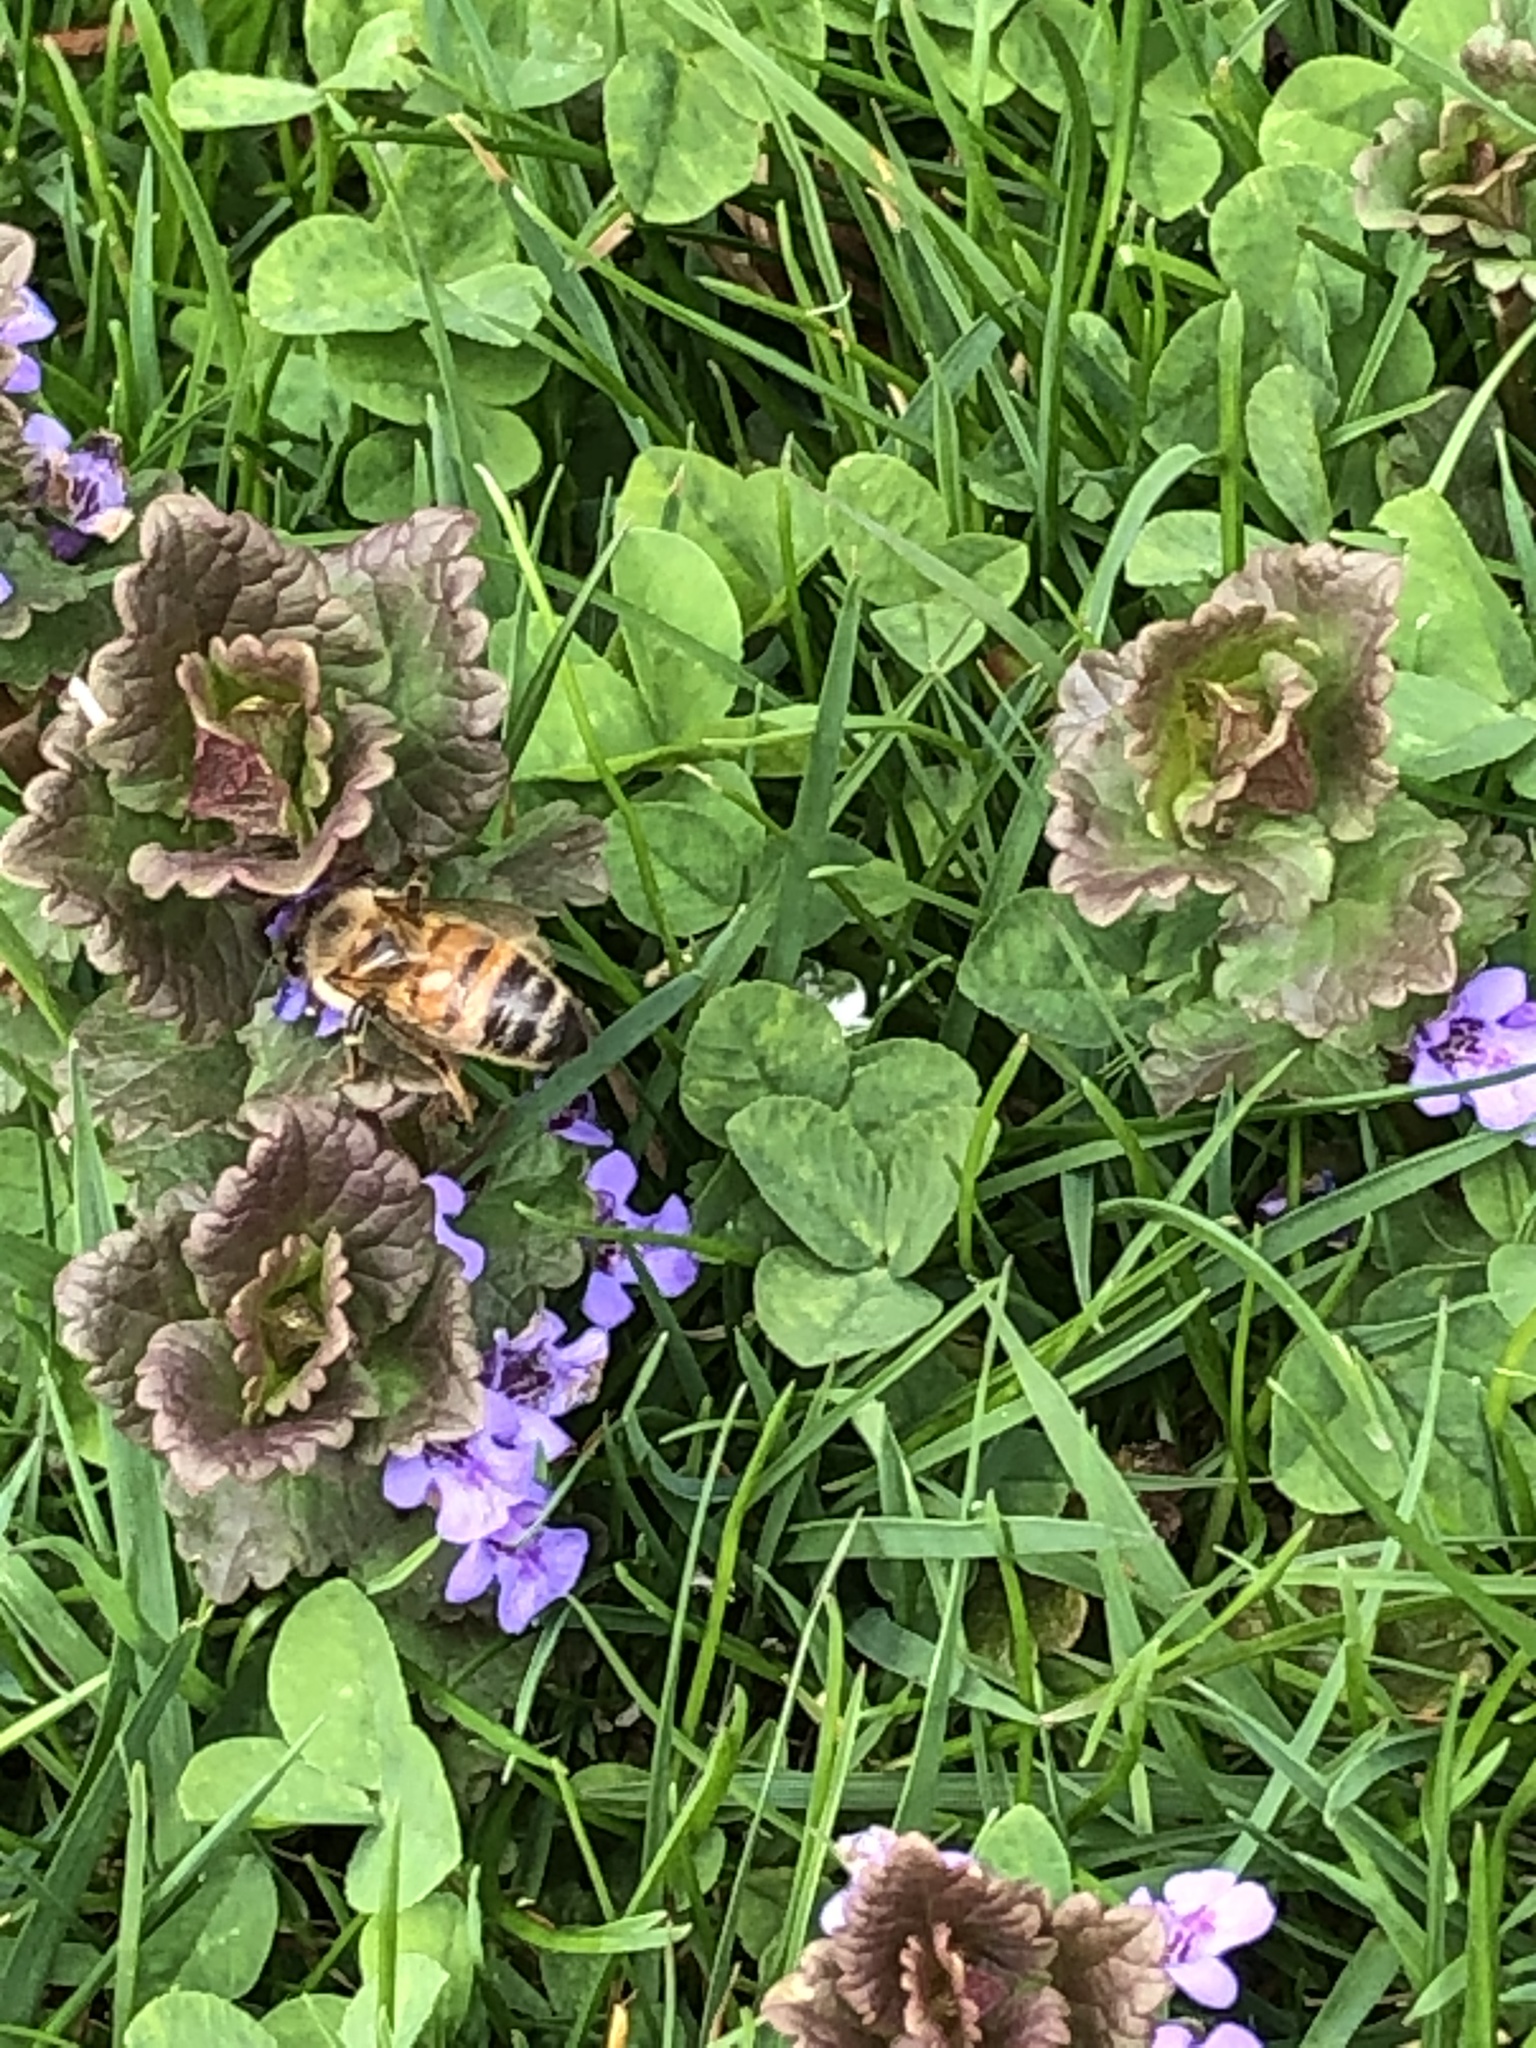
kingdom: Animalia
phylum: Arthropoda
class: Insecta
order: Hymenoptera
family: Apidae
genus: Apis
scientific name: Apis mellifera
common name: Honey bee
